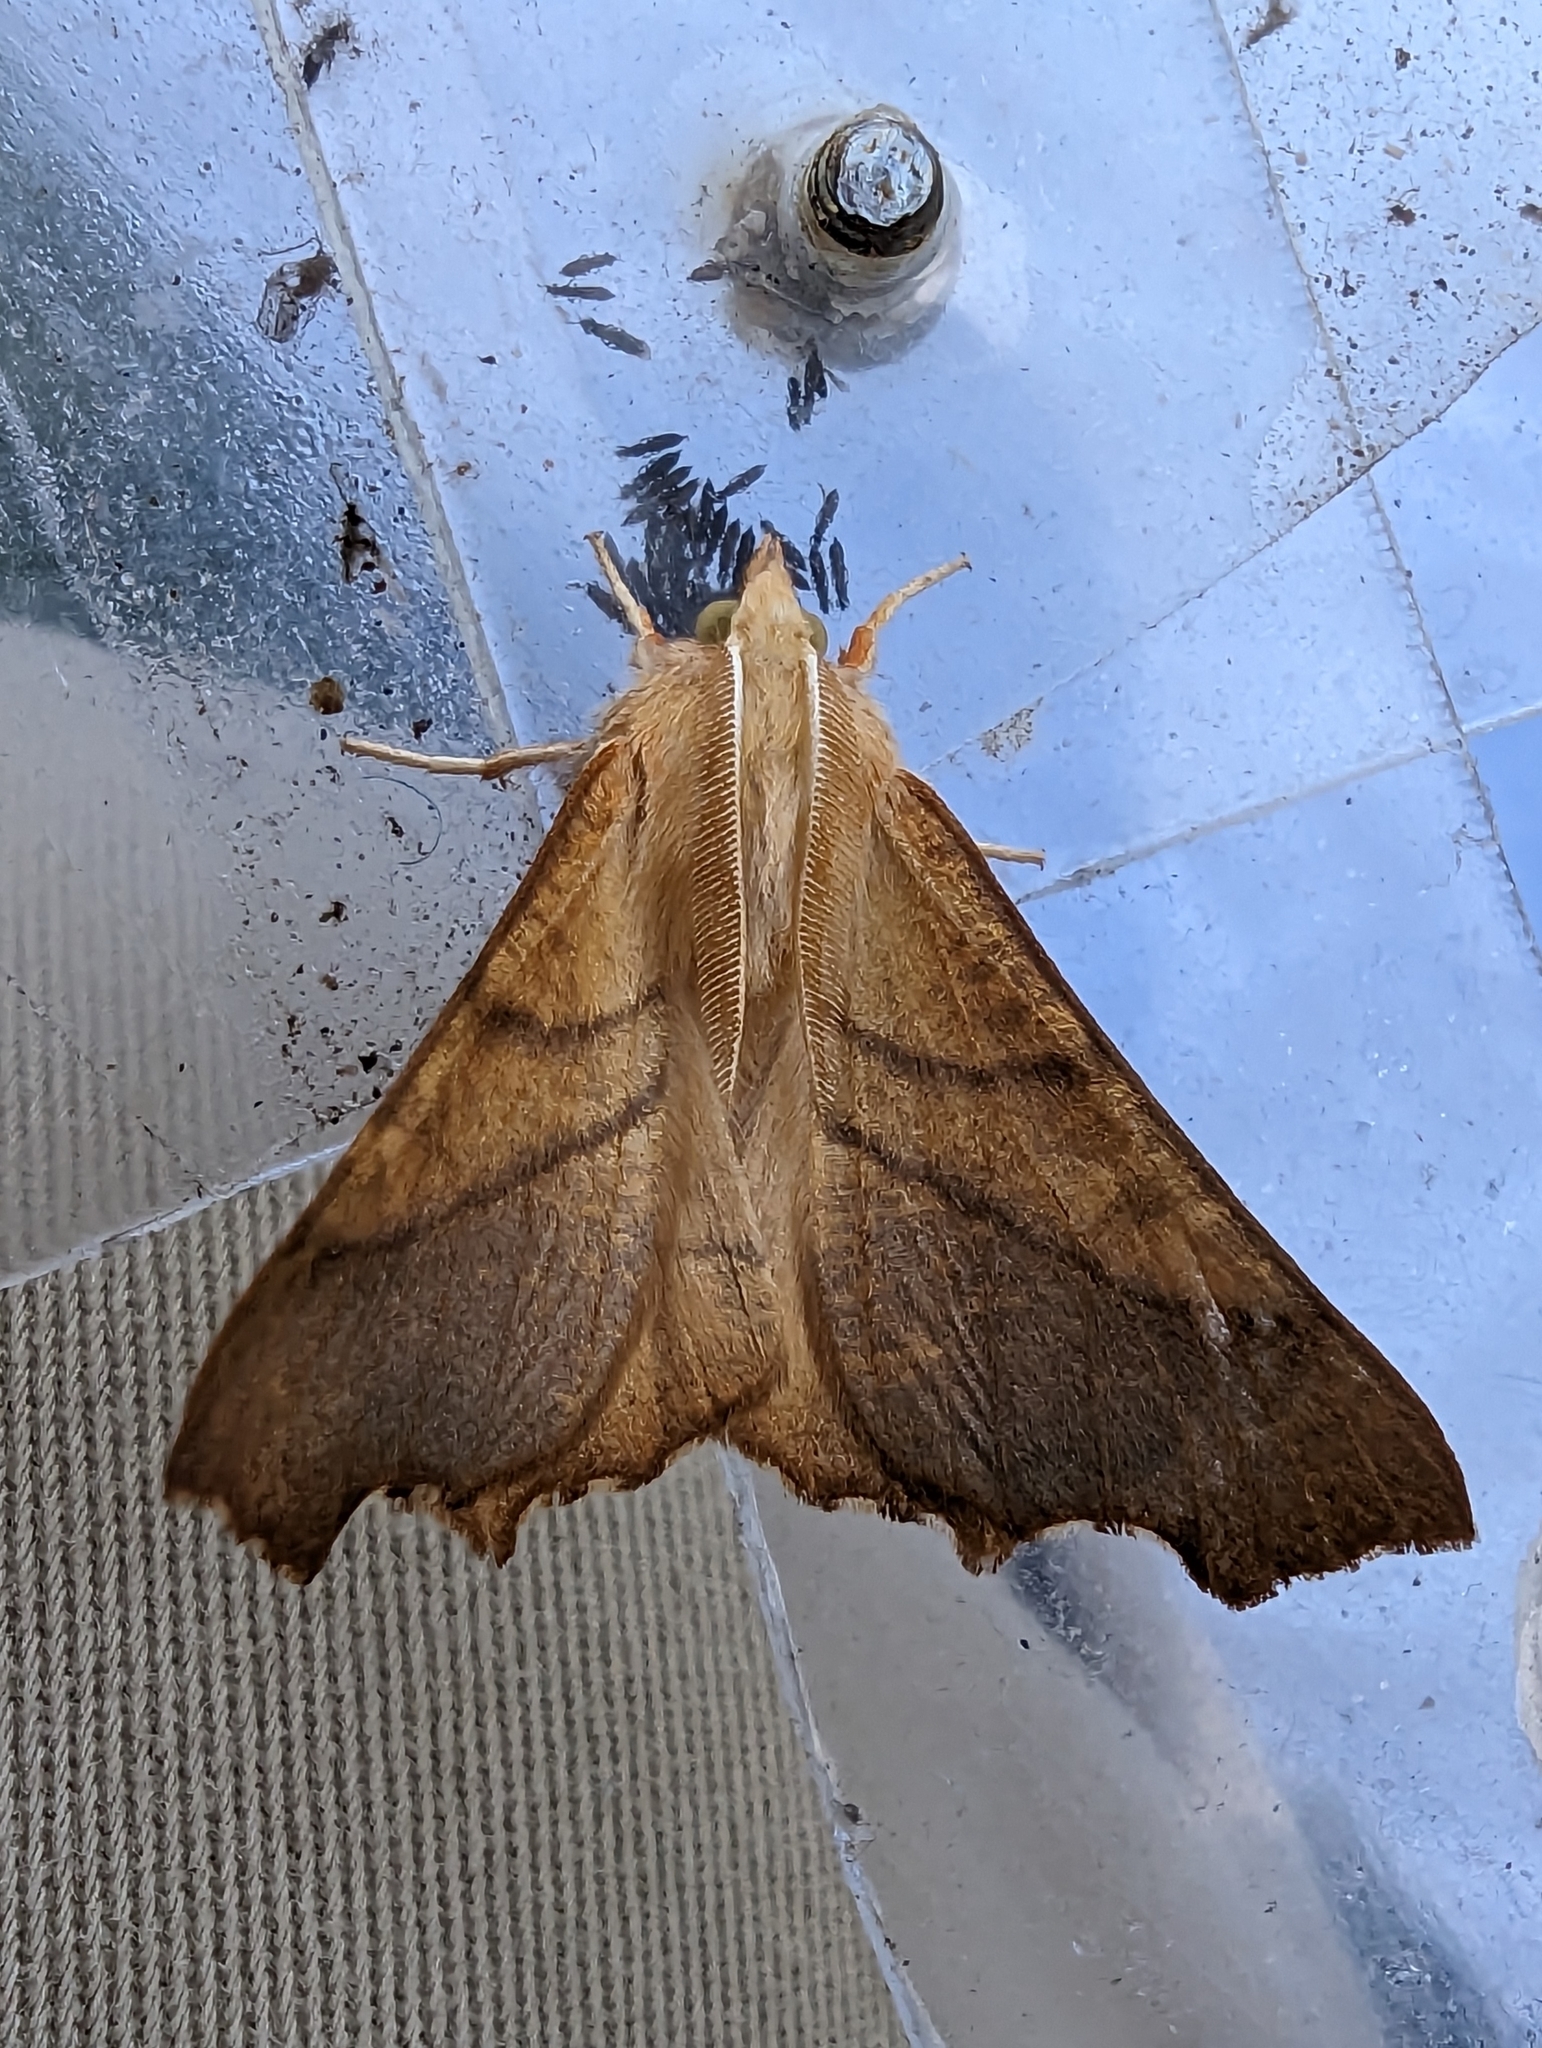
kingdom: Animalia
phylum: Arthropoda
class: Insecta
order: Lepidoptera
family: Geometridae
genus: Ennomos
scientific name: Ennomos fuscantaria
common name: Dusky thorn
